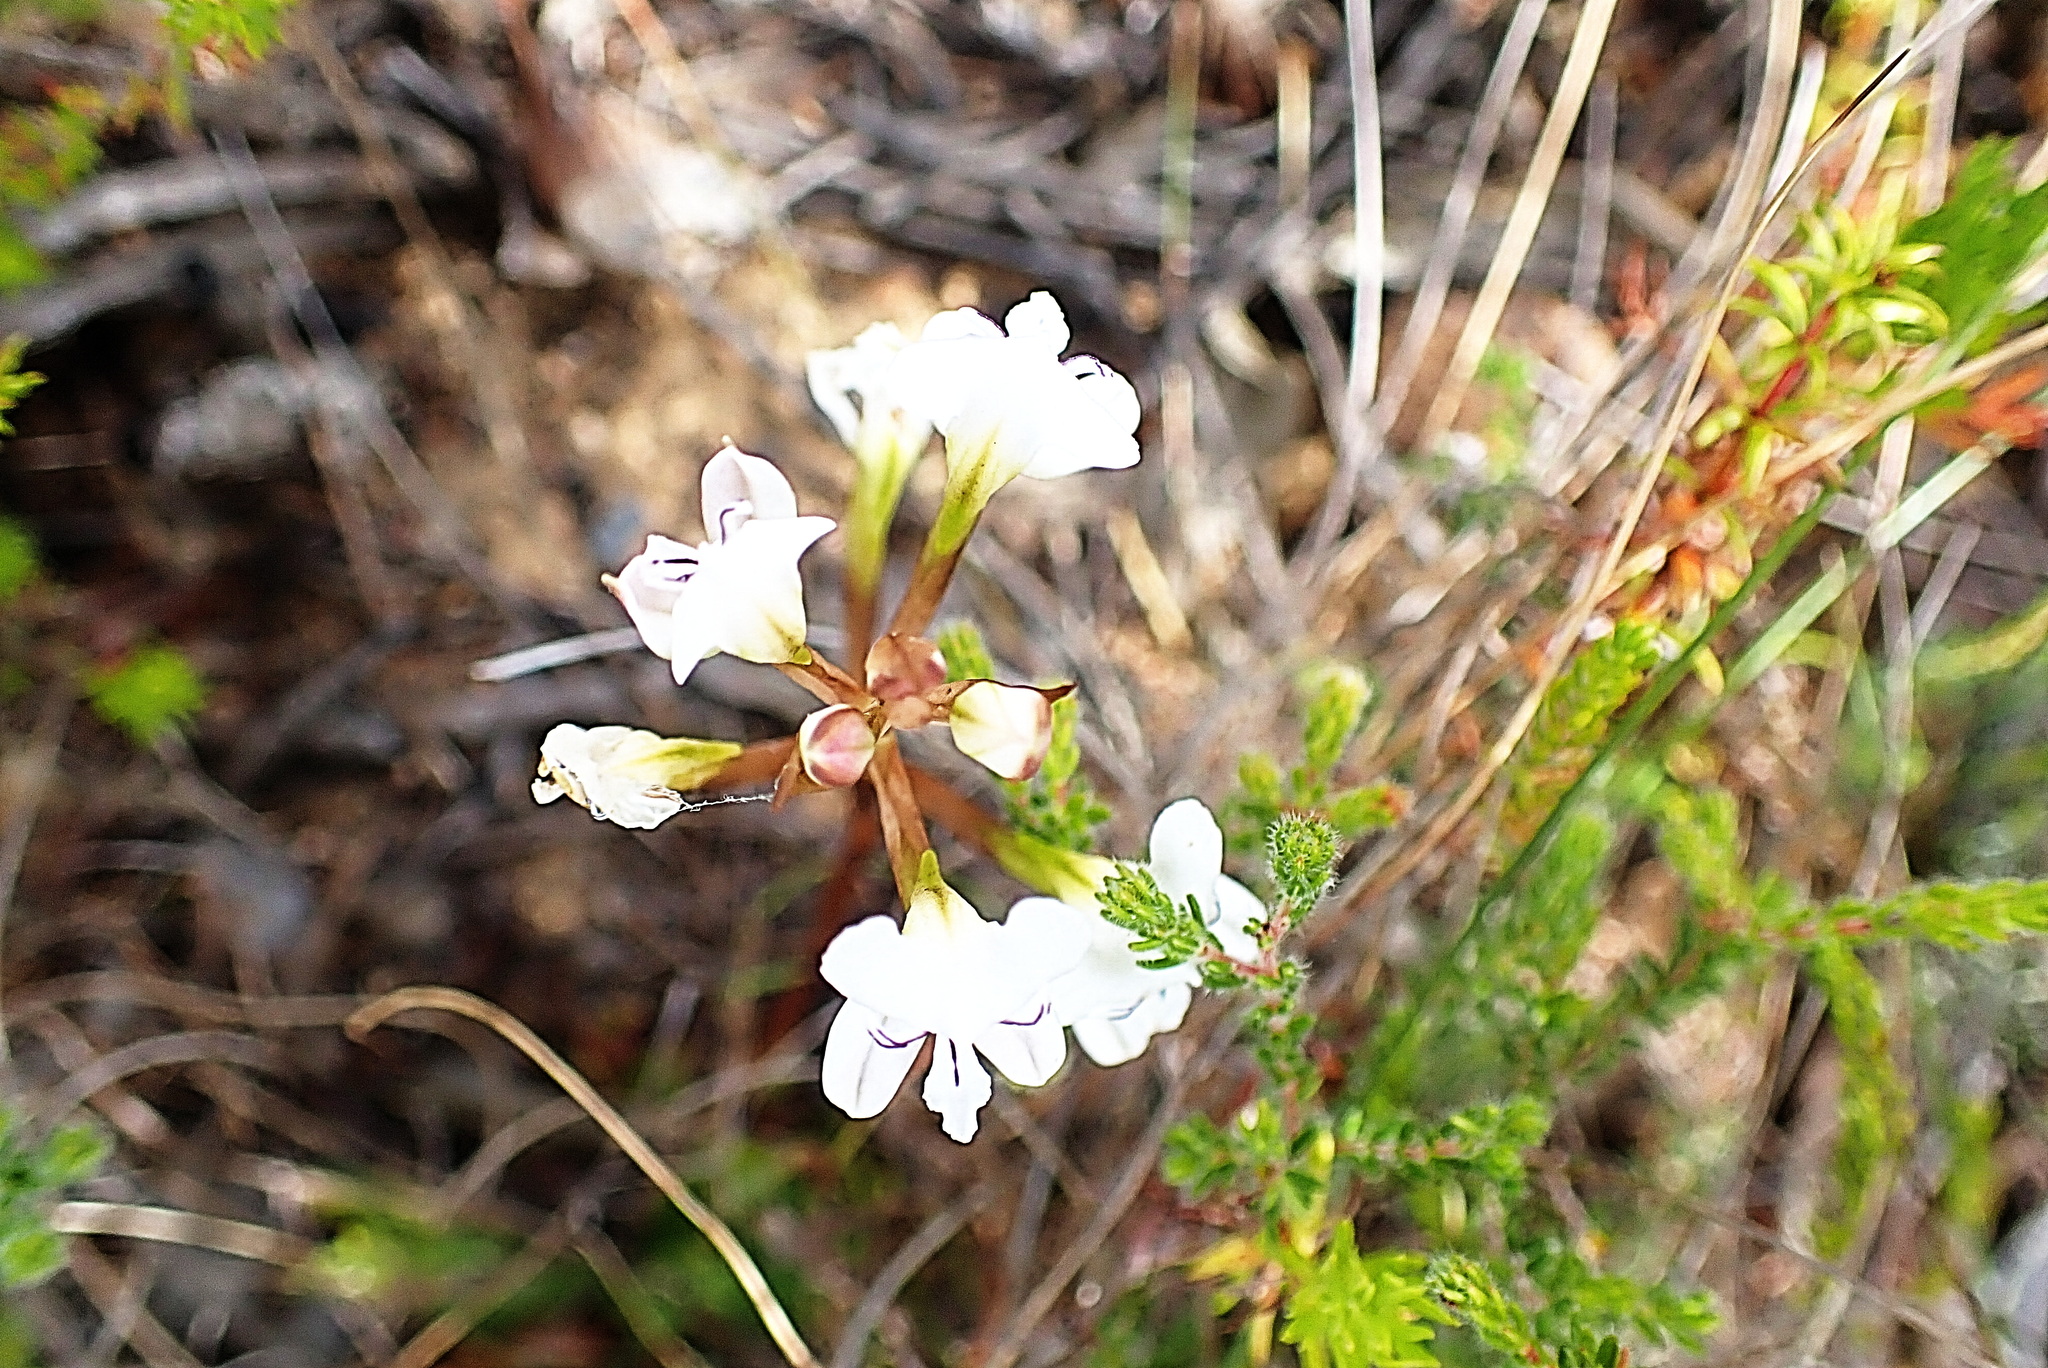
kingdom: Plantae
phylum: Tracheophyta
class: Liliopsida
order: Asparagales
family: Orchidaceae
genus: Disa
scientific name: Disa sagittalis
